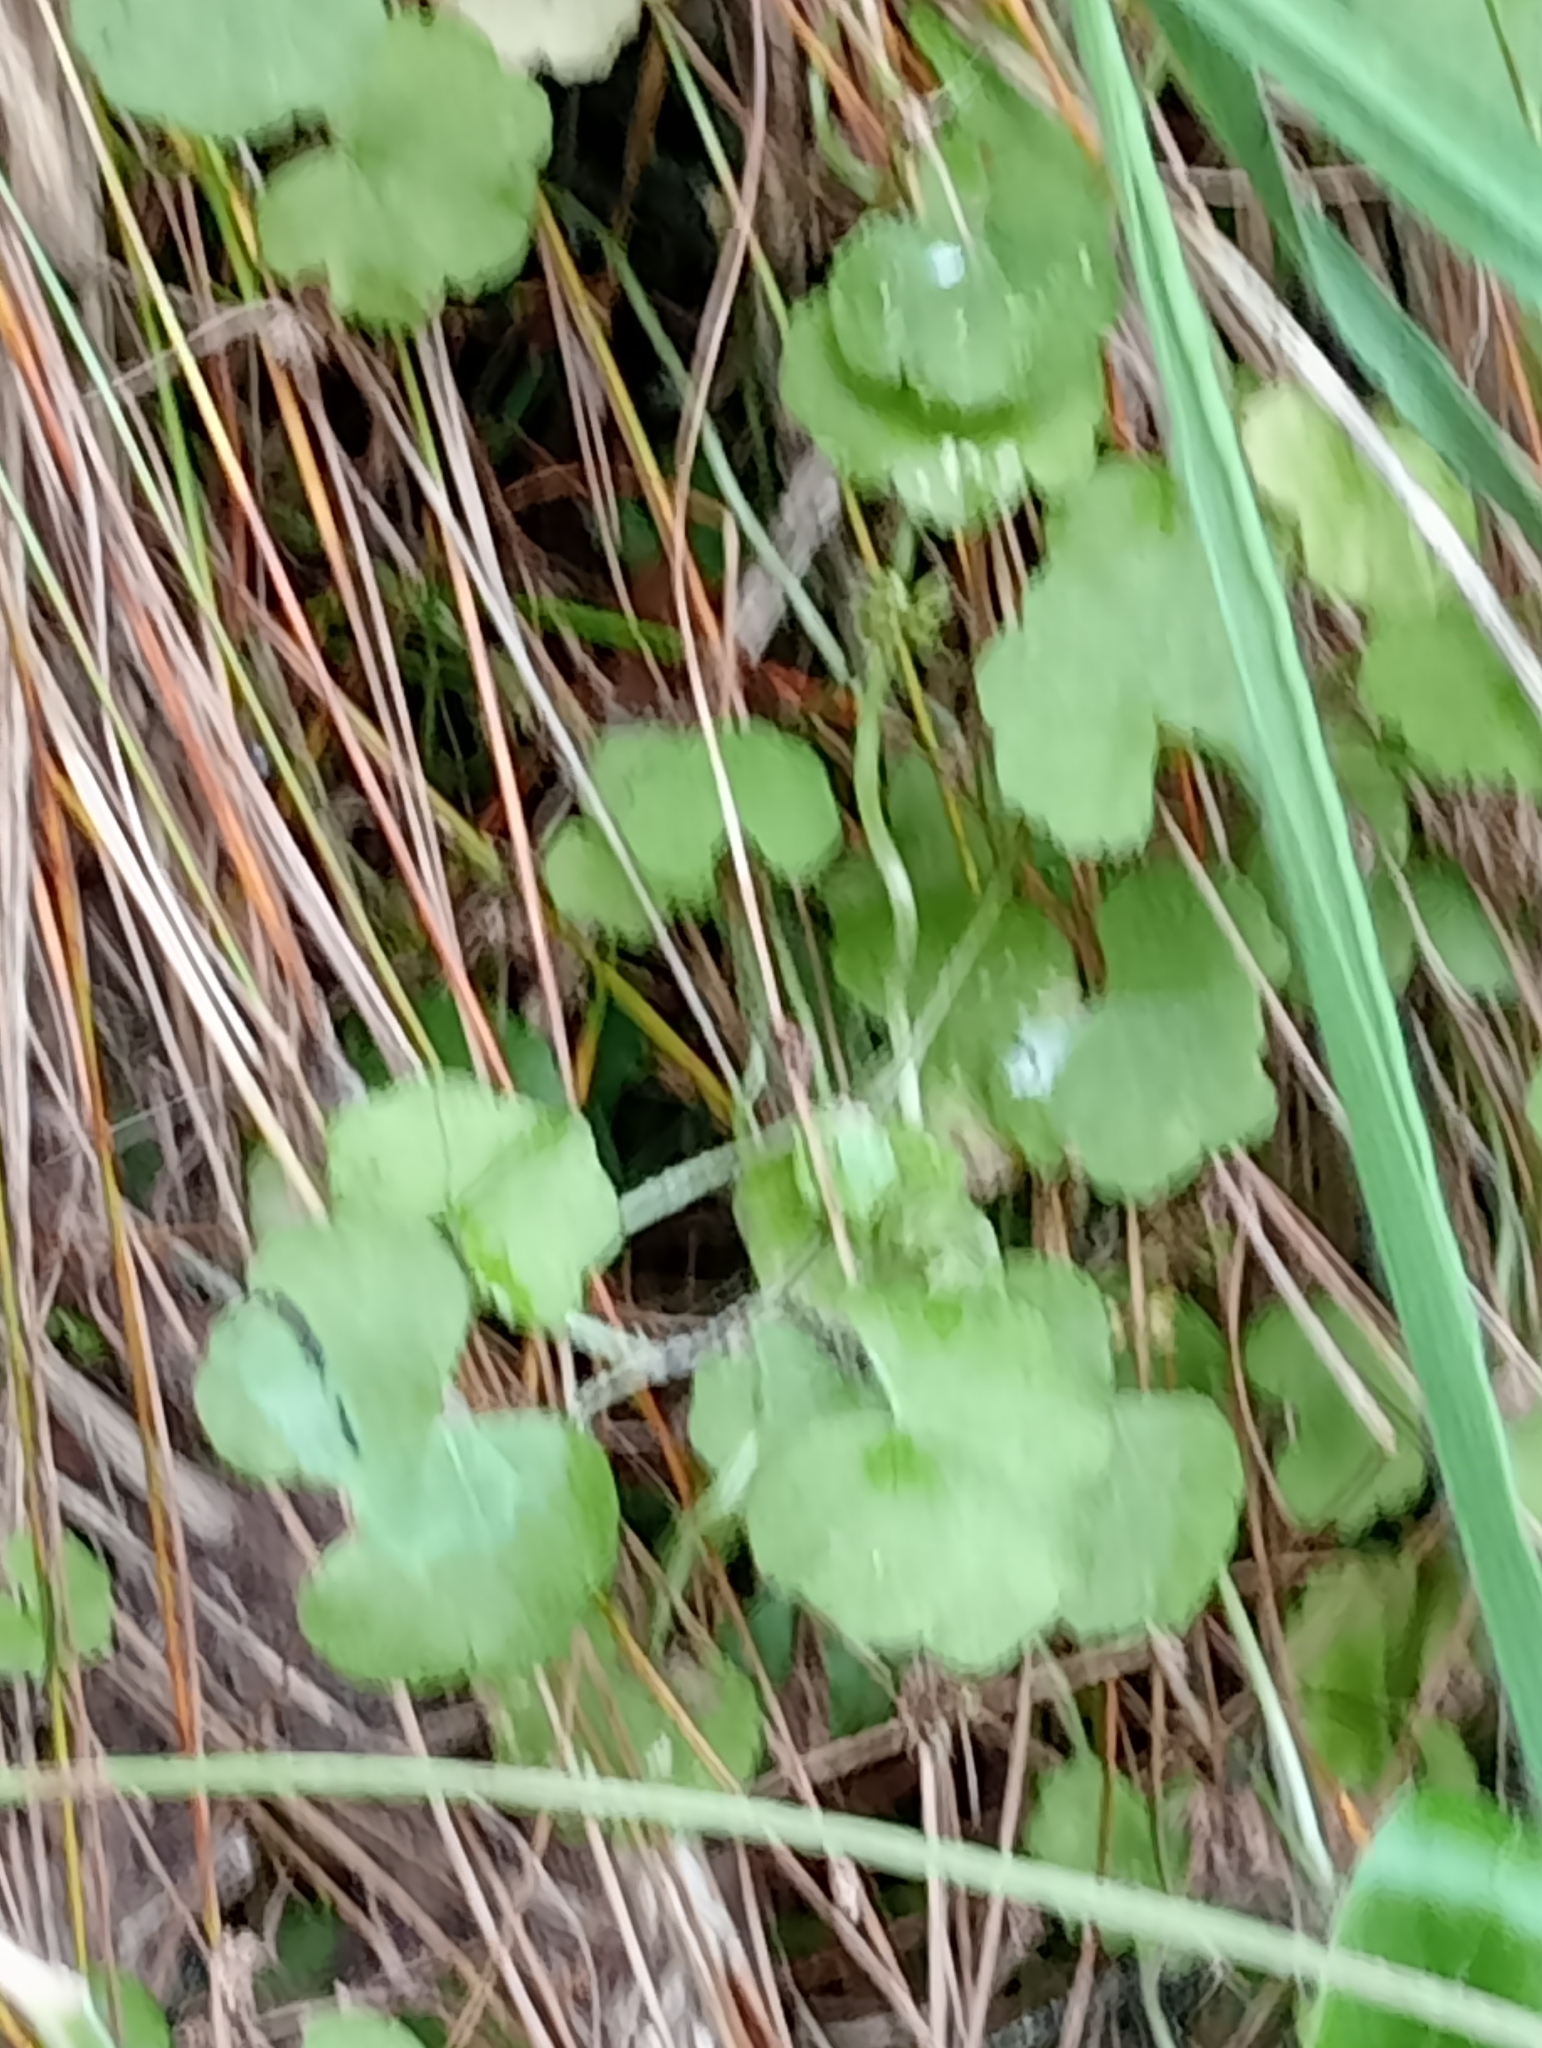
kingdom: Plantae
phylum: Tracheophyta
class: Magnoliopsida
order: Apiales
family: Araliaceae
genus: Hydrocotyle
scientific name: Hydrocotyle novae-zeelandiae
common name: New zealand pennywort
